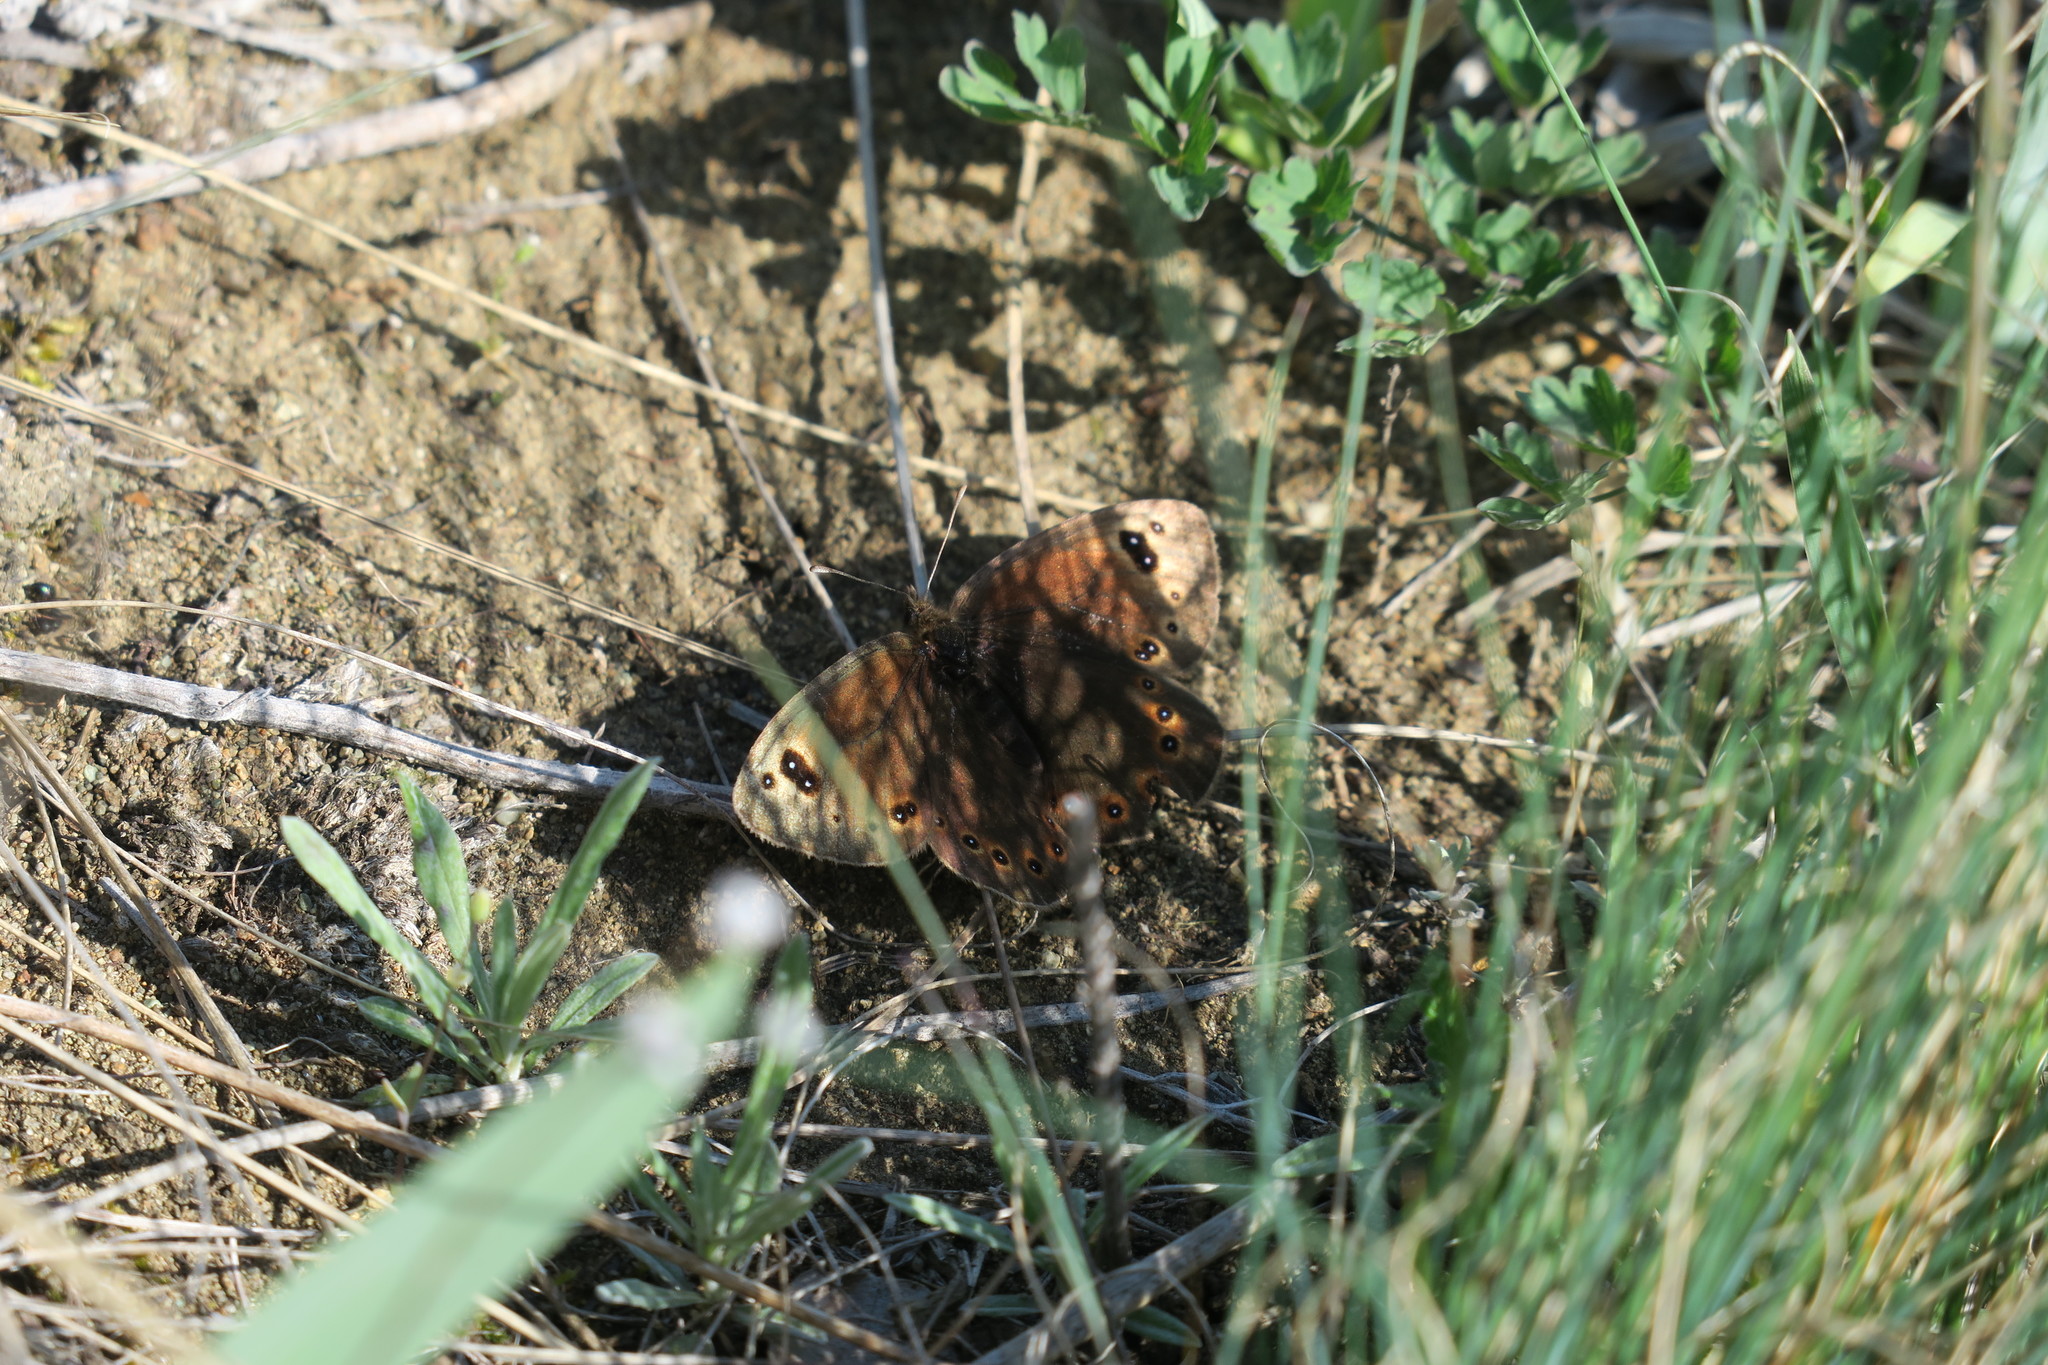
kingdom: Animalia
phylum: Arthropoda
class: Insecta
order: Lepidoptera
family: Nymphalidae
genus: Proterebia
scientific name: Proterebia afra
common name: Dalmatian ringlet
